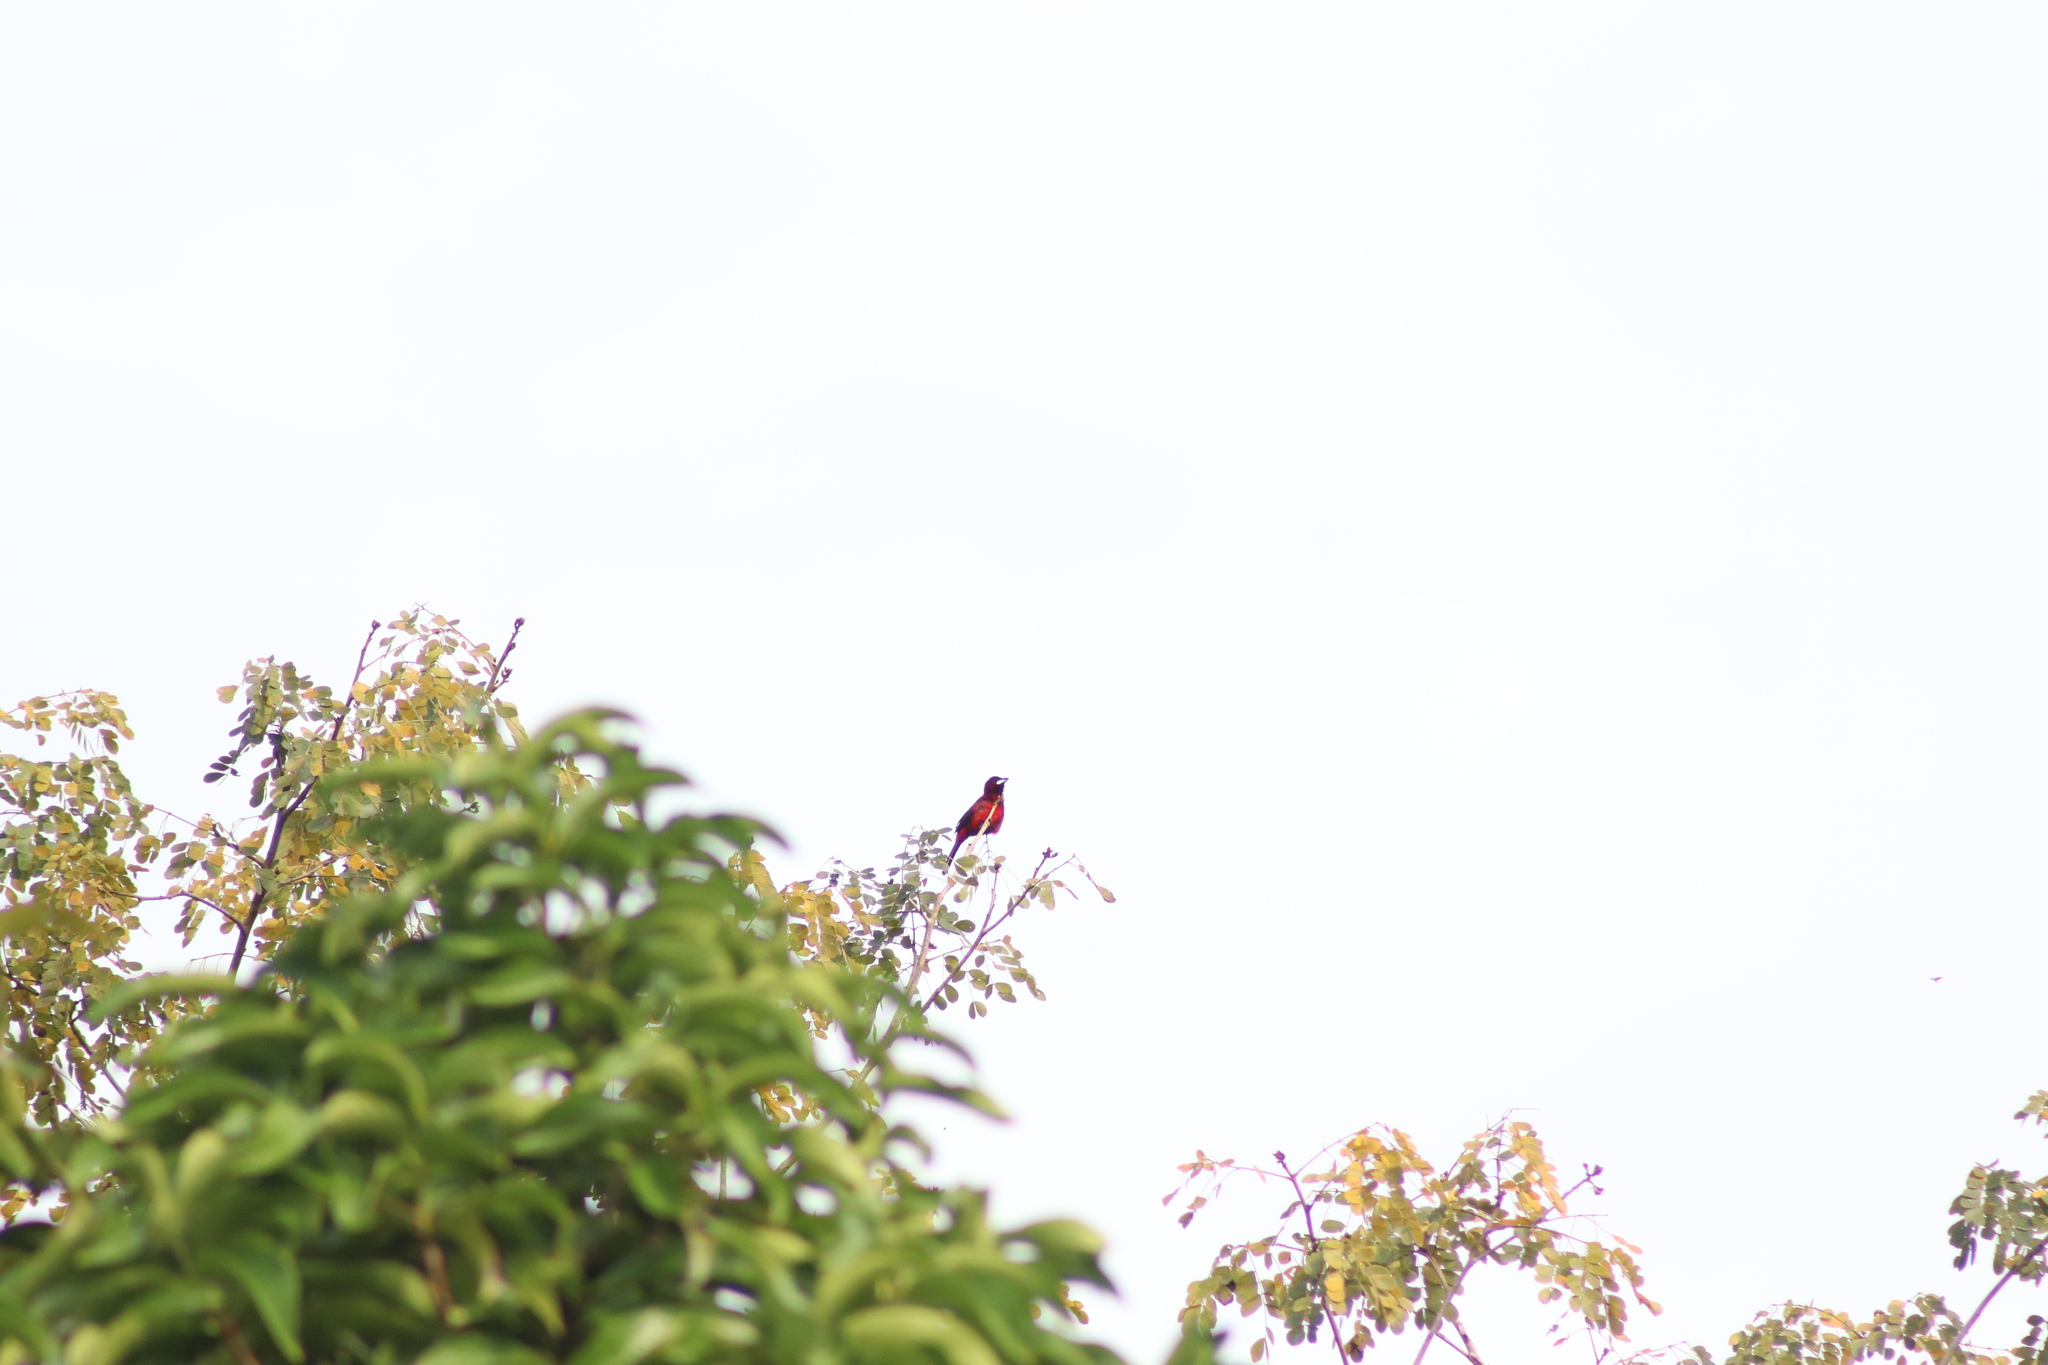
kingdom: Animalia
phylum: Chordata
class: Aves
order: Passeriformes
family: Thraupidae
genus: Ramphocelus
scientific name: Ramphocelus dimidiatus
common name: Crimson-backed tanager
